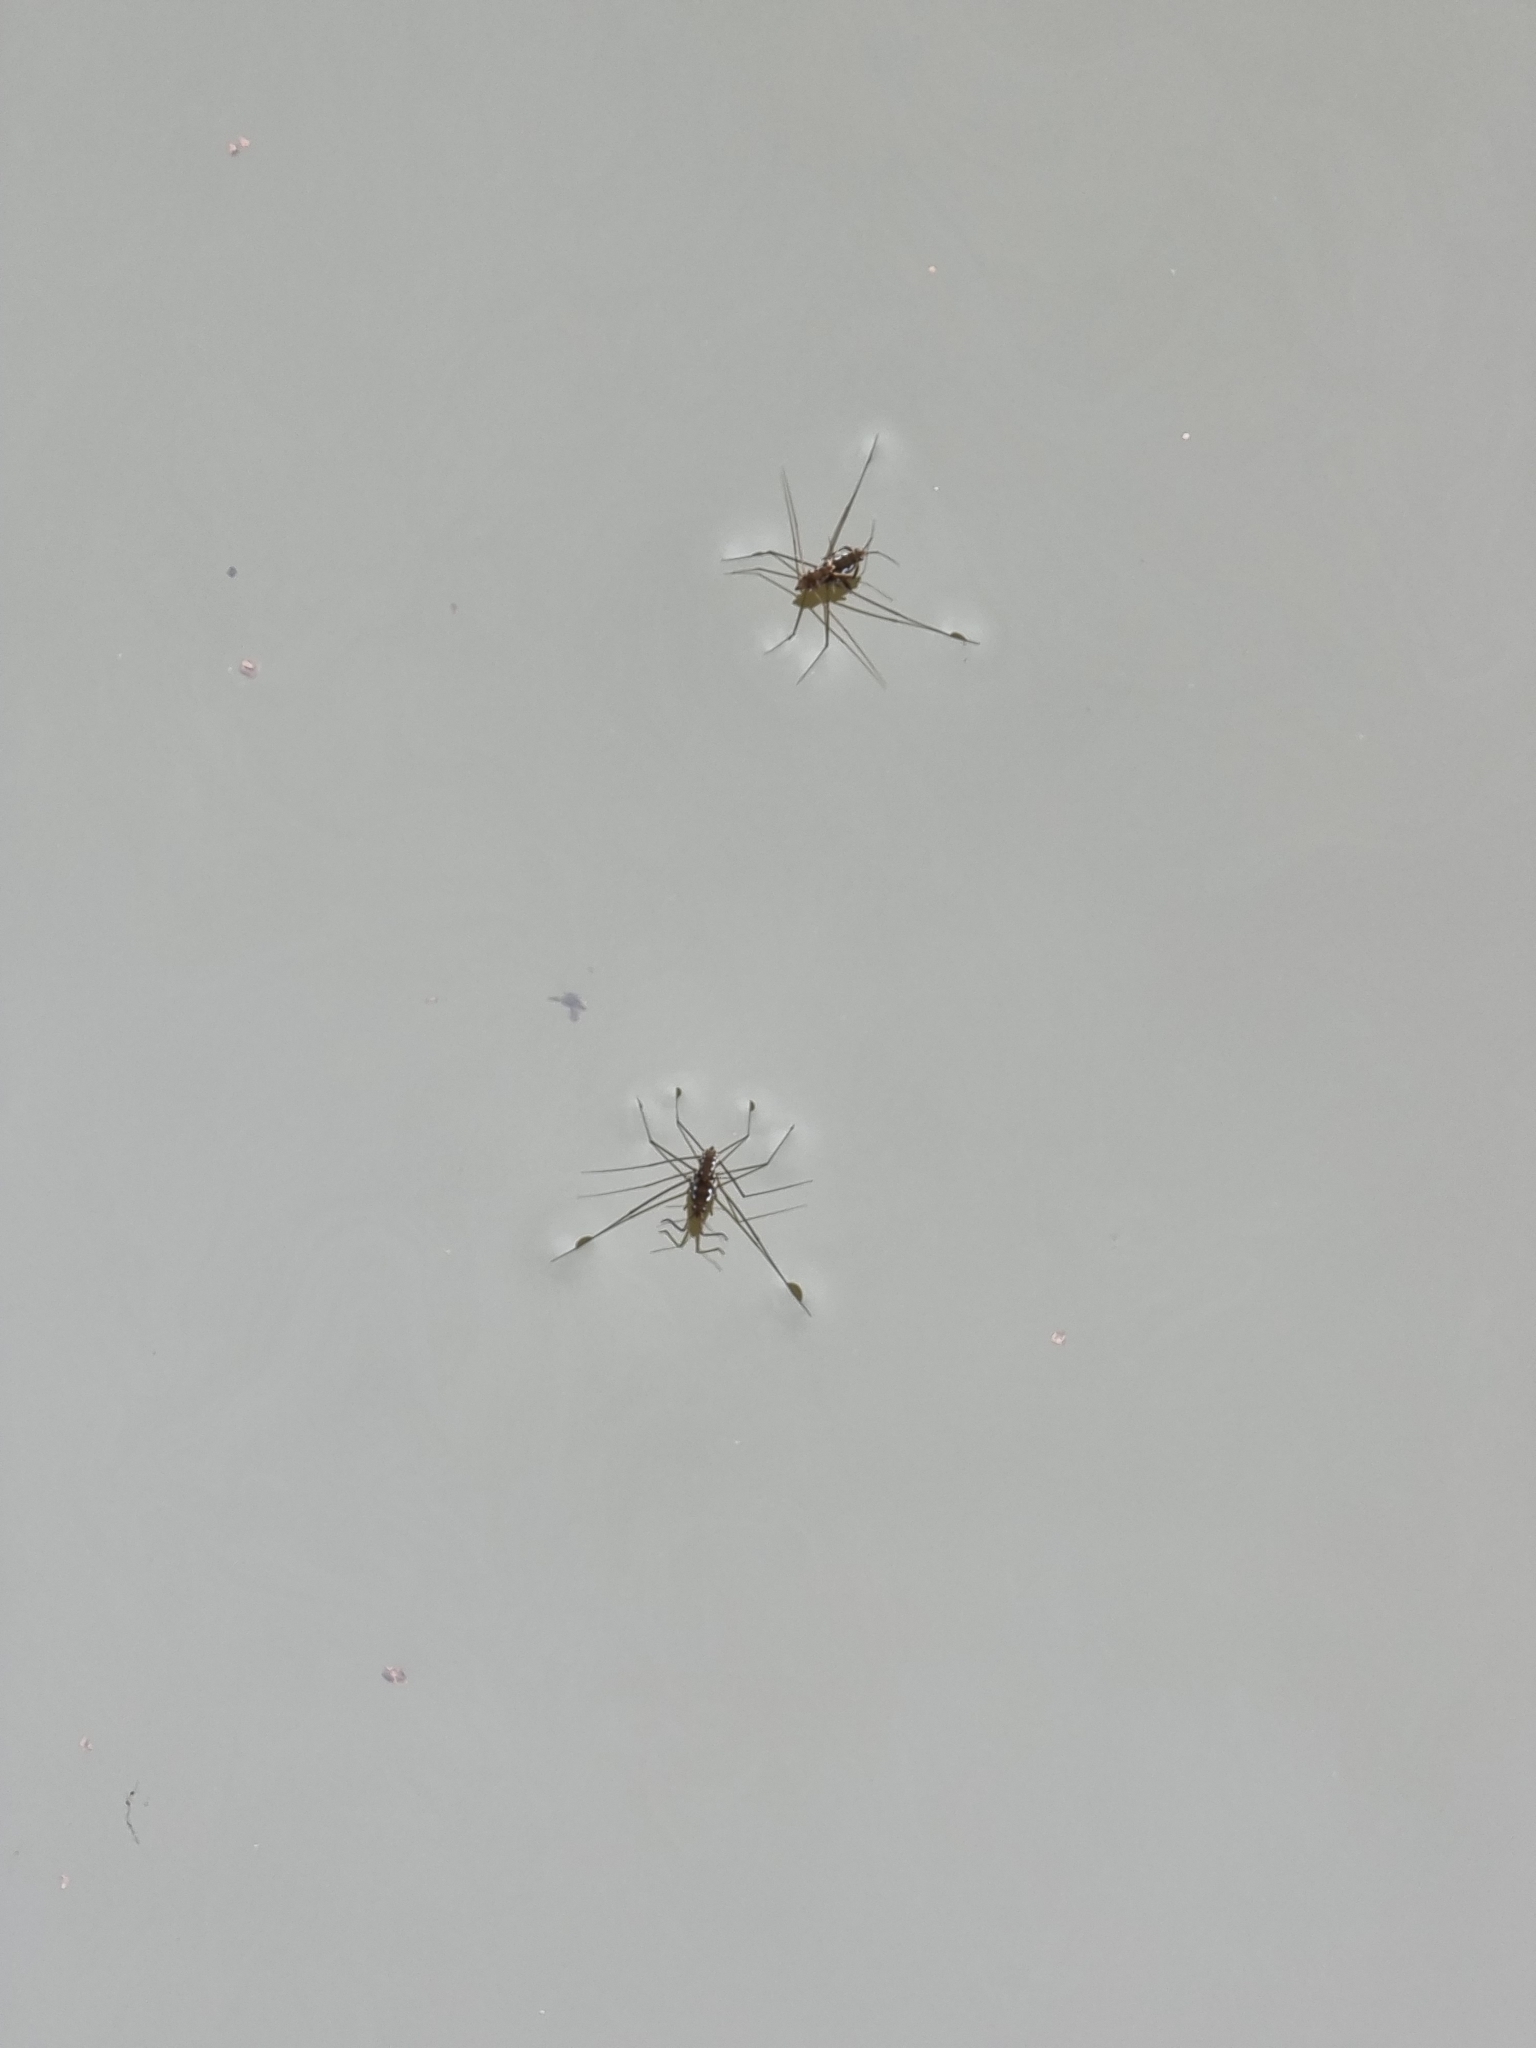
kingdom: Animalia
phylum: Arthropoda
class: Insecta
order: Hemiptera
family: Gerridae
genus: Tenagogerris
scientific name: Tenagogerris euphrosyne
